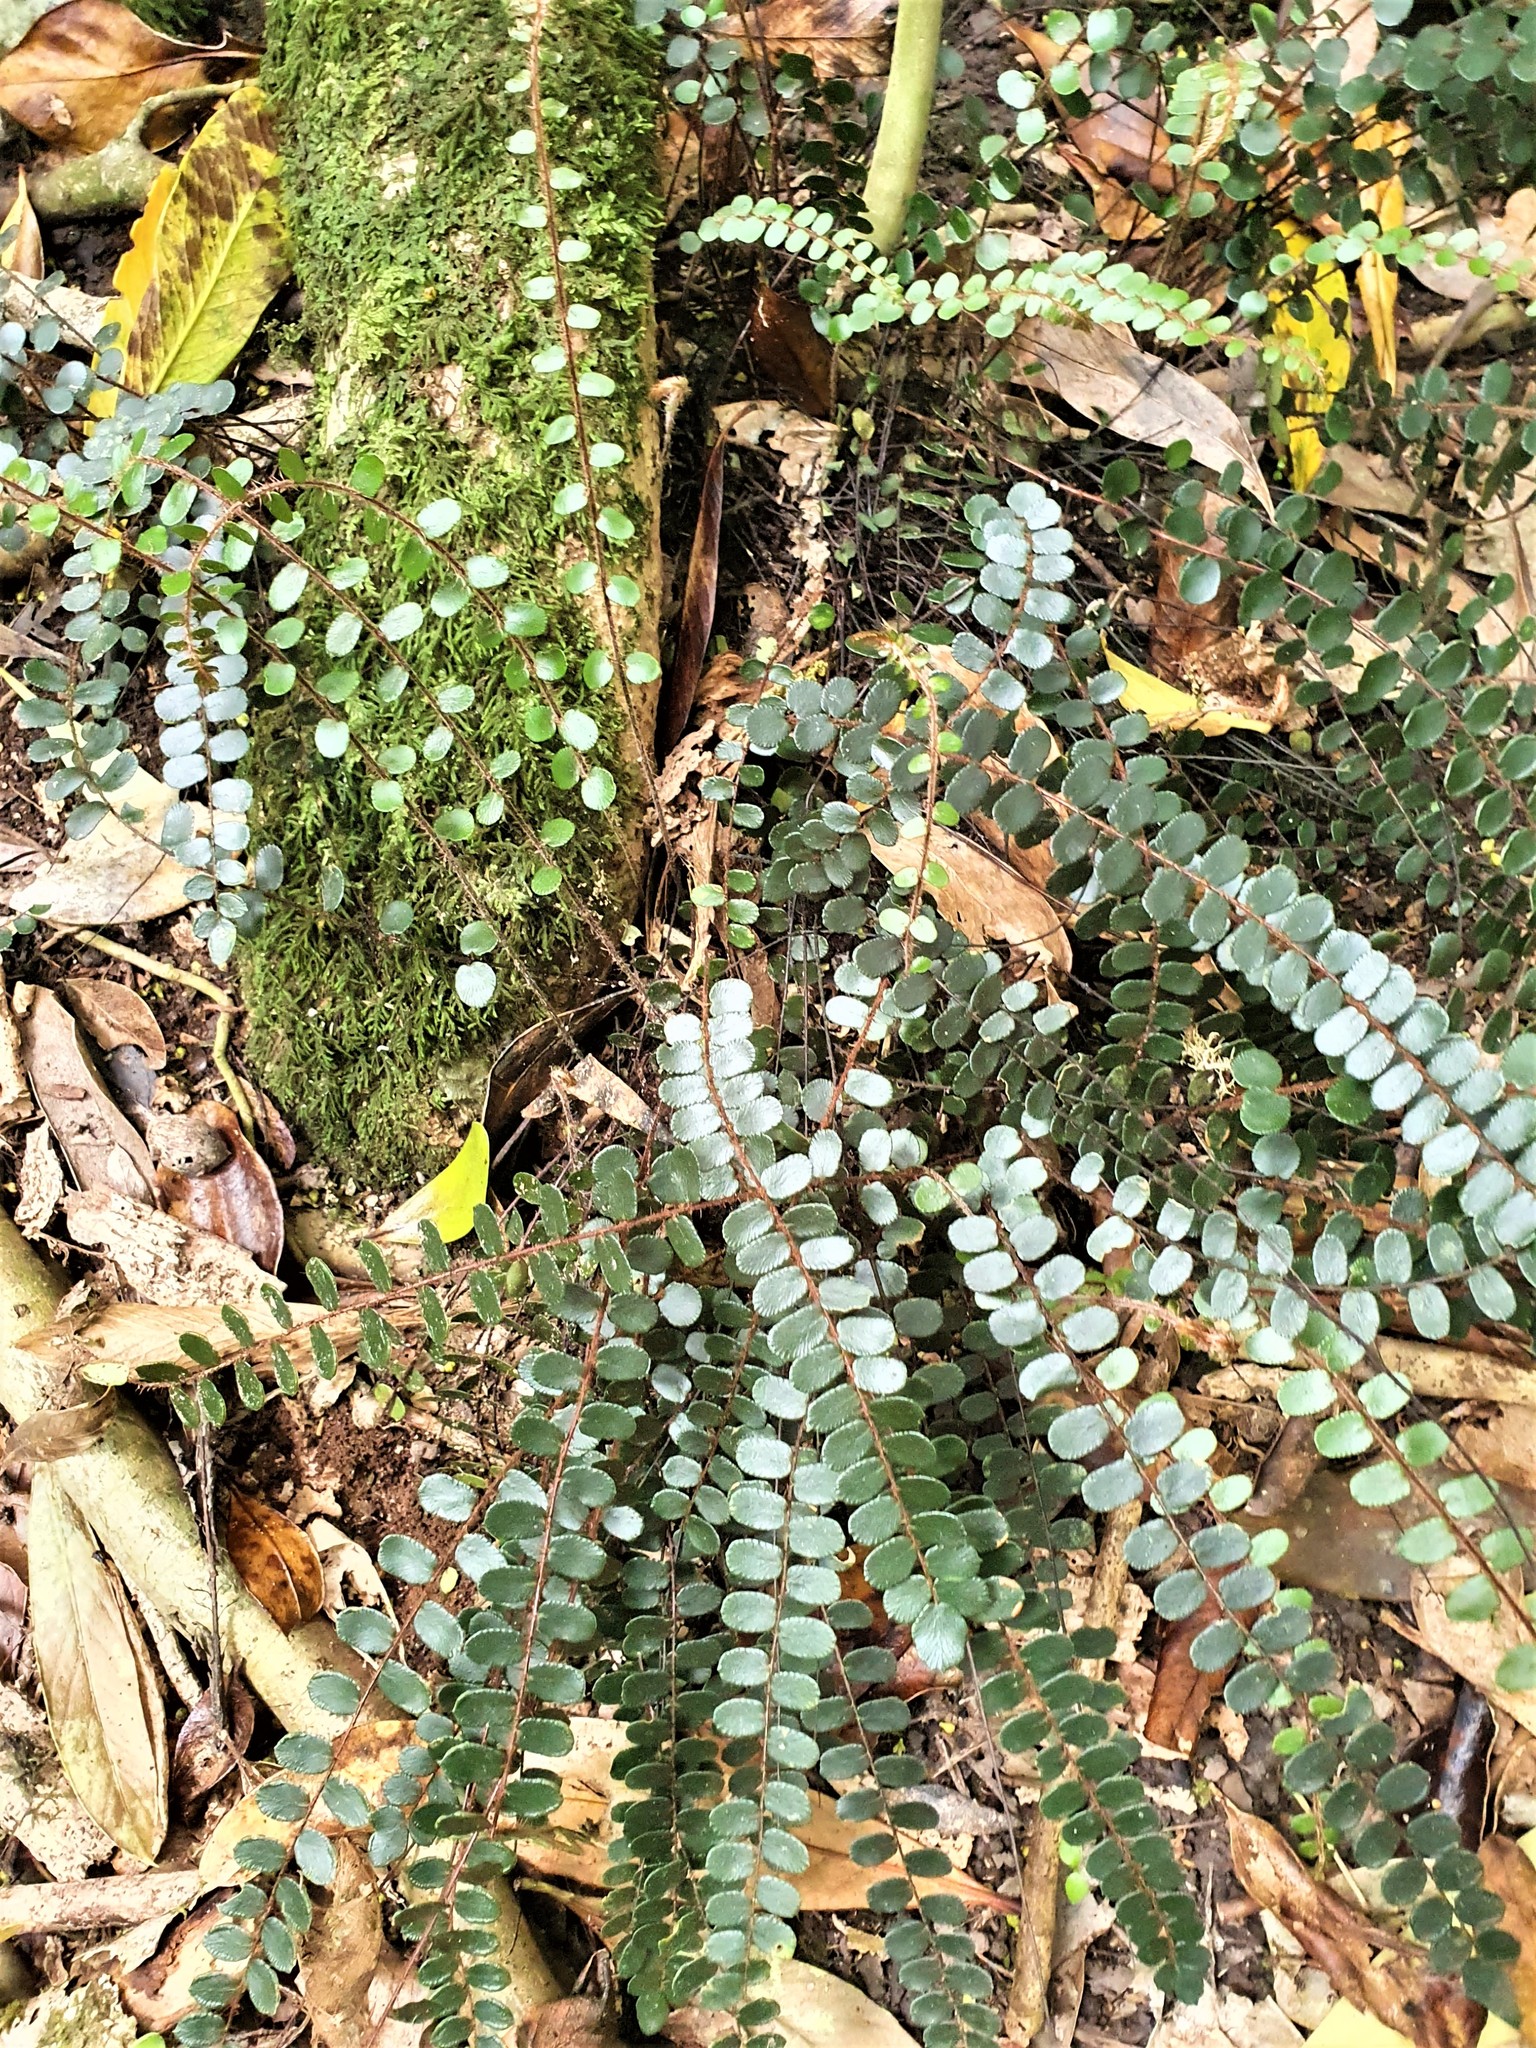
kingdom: Plantae
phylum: Tracheophyta
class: Polypodiopsida
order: Polypodiales
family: Pteridaceae
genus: Pellaea
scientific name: Pellaea rotundifolia
